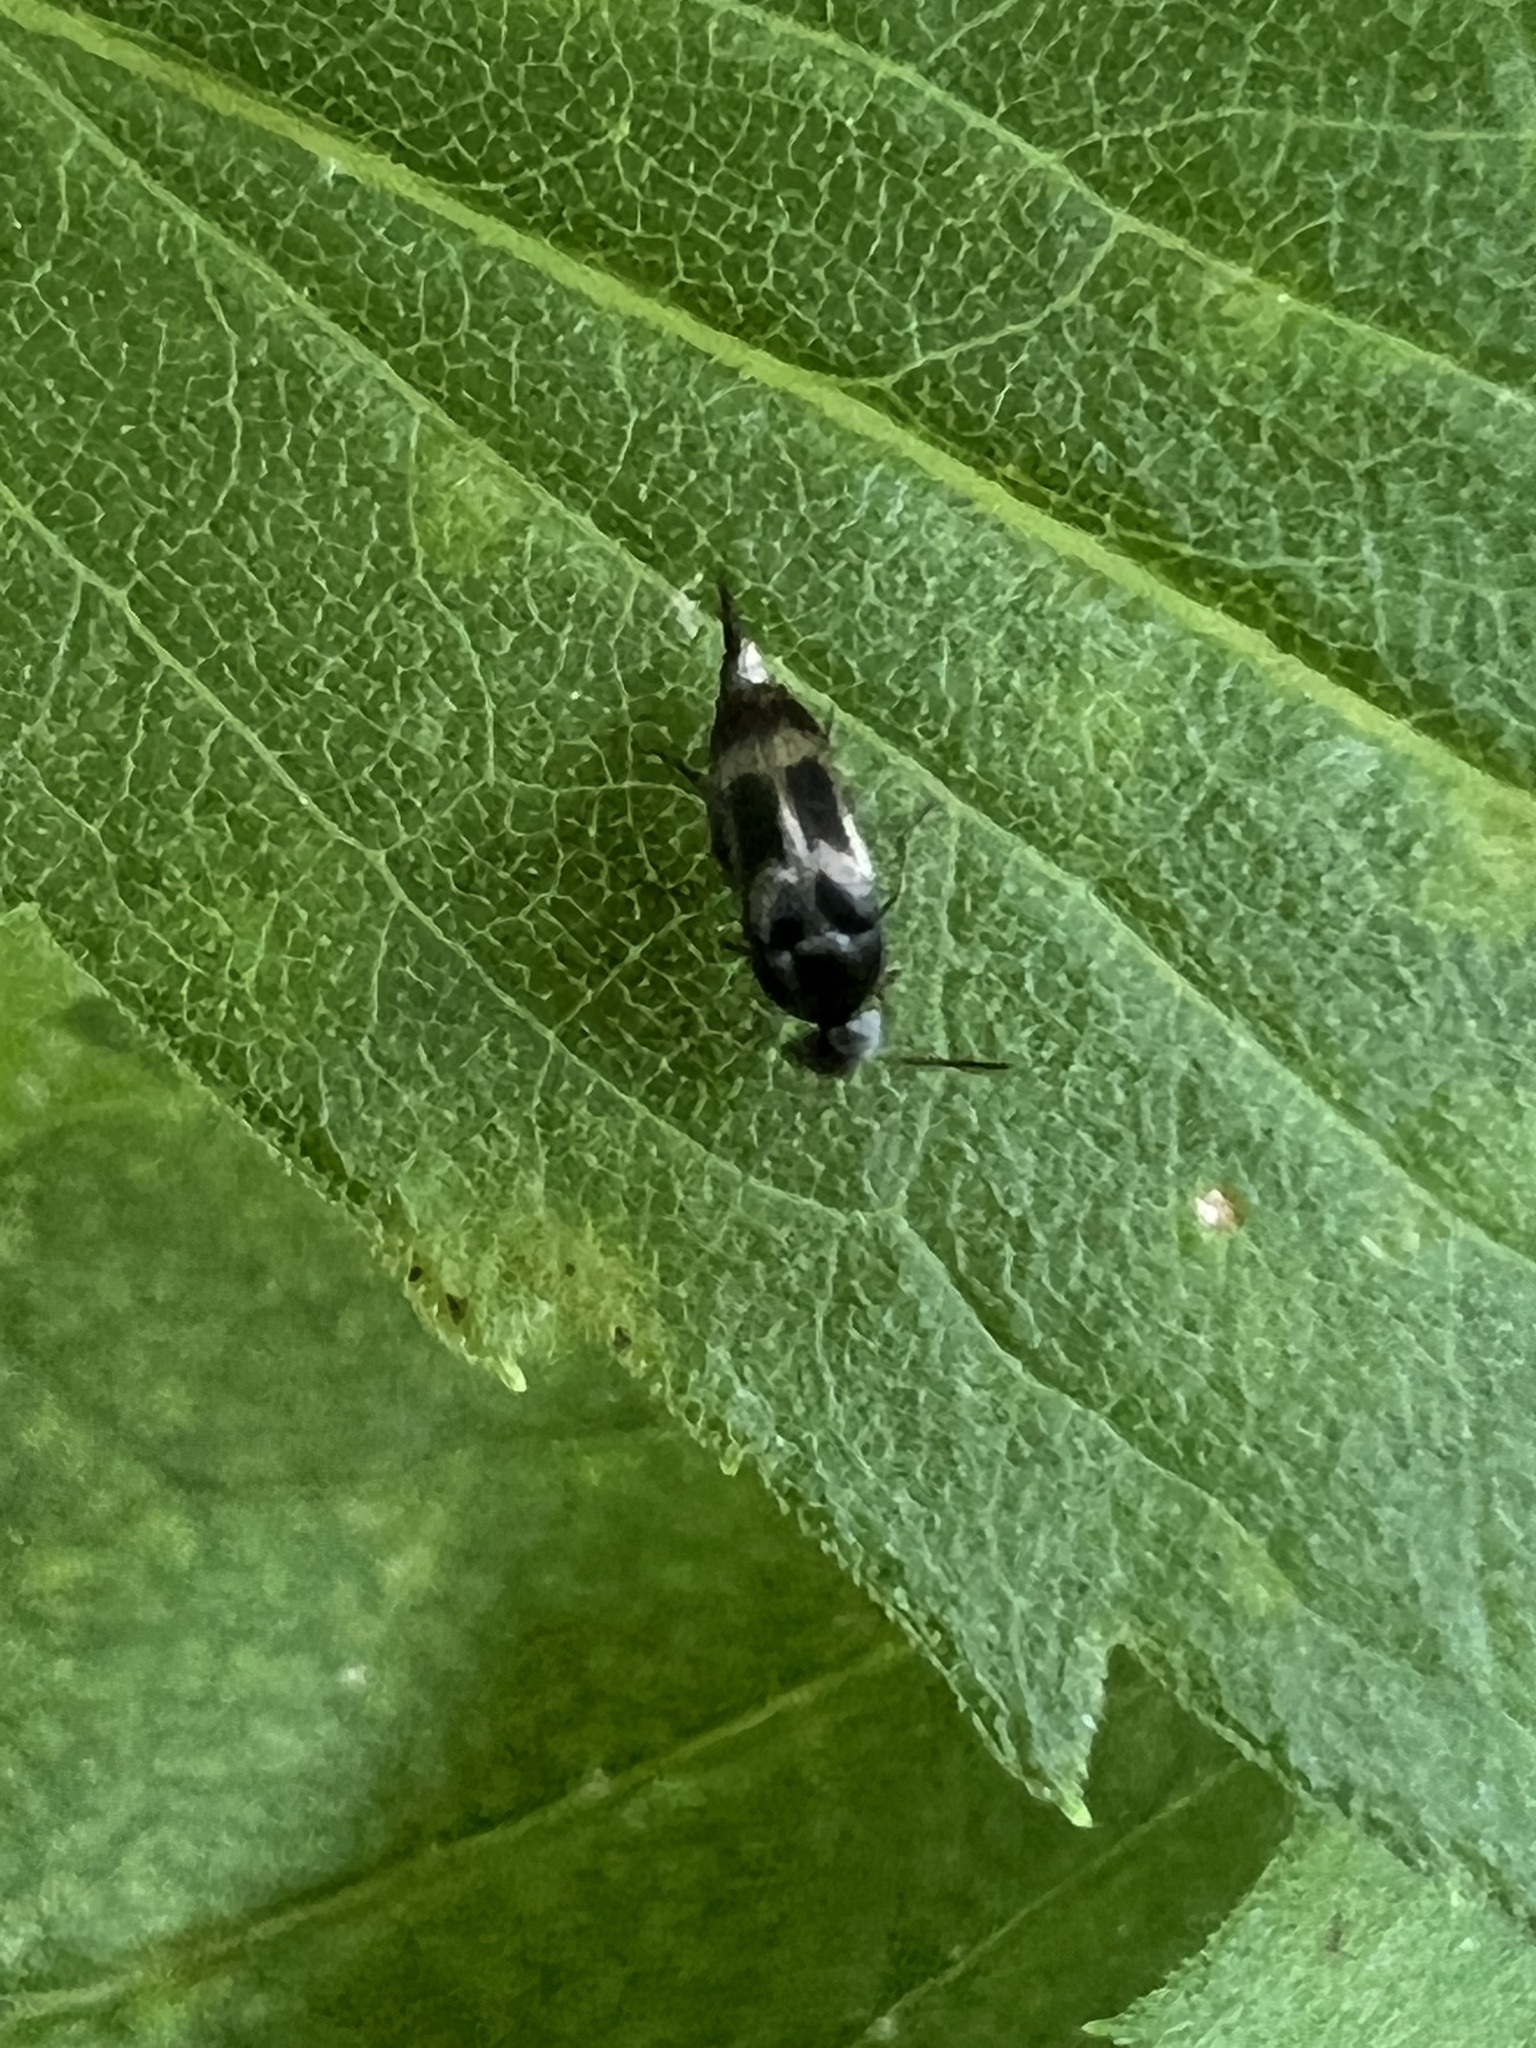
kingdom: Animalia
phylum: Arthropoda
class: Insecta
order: Coleoptera
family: Mordellidae
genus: Falsomordellistena
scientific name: Falsomordellistena hebraica
